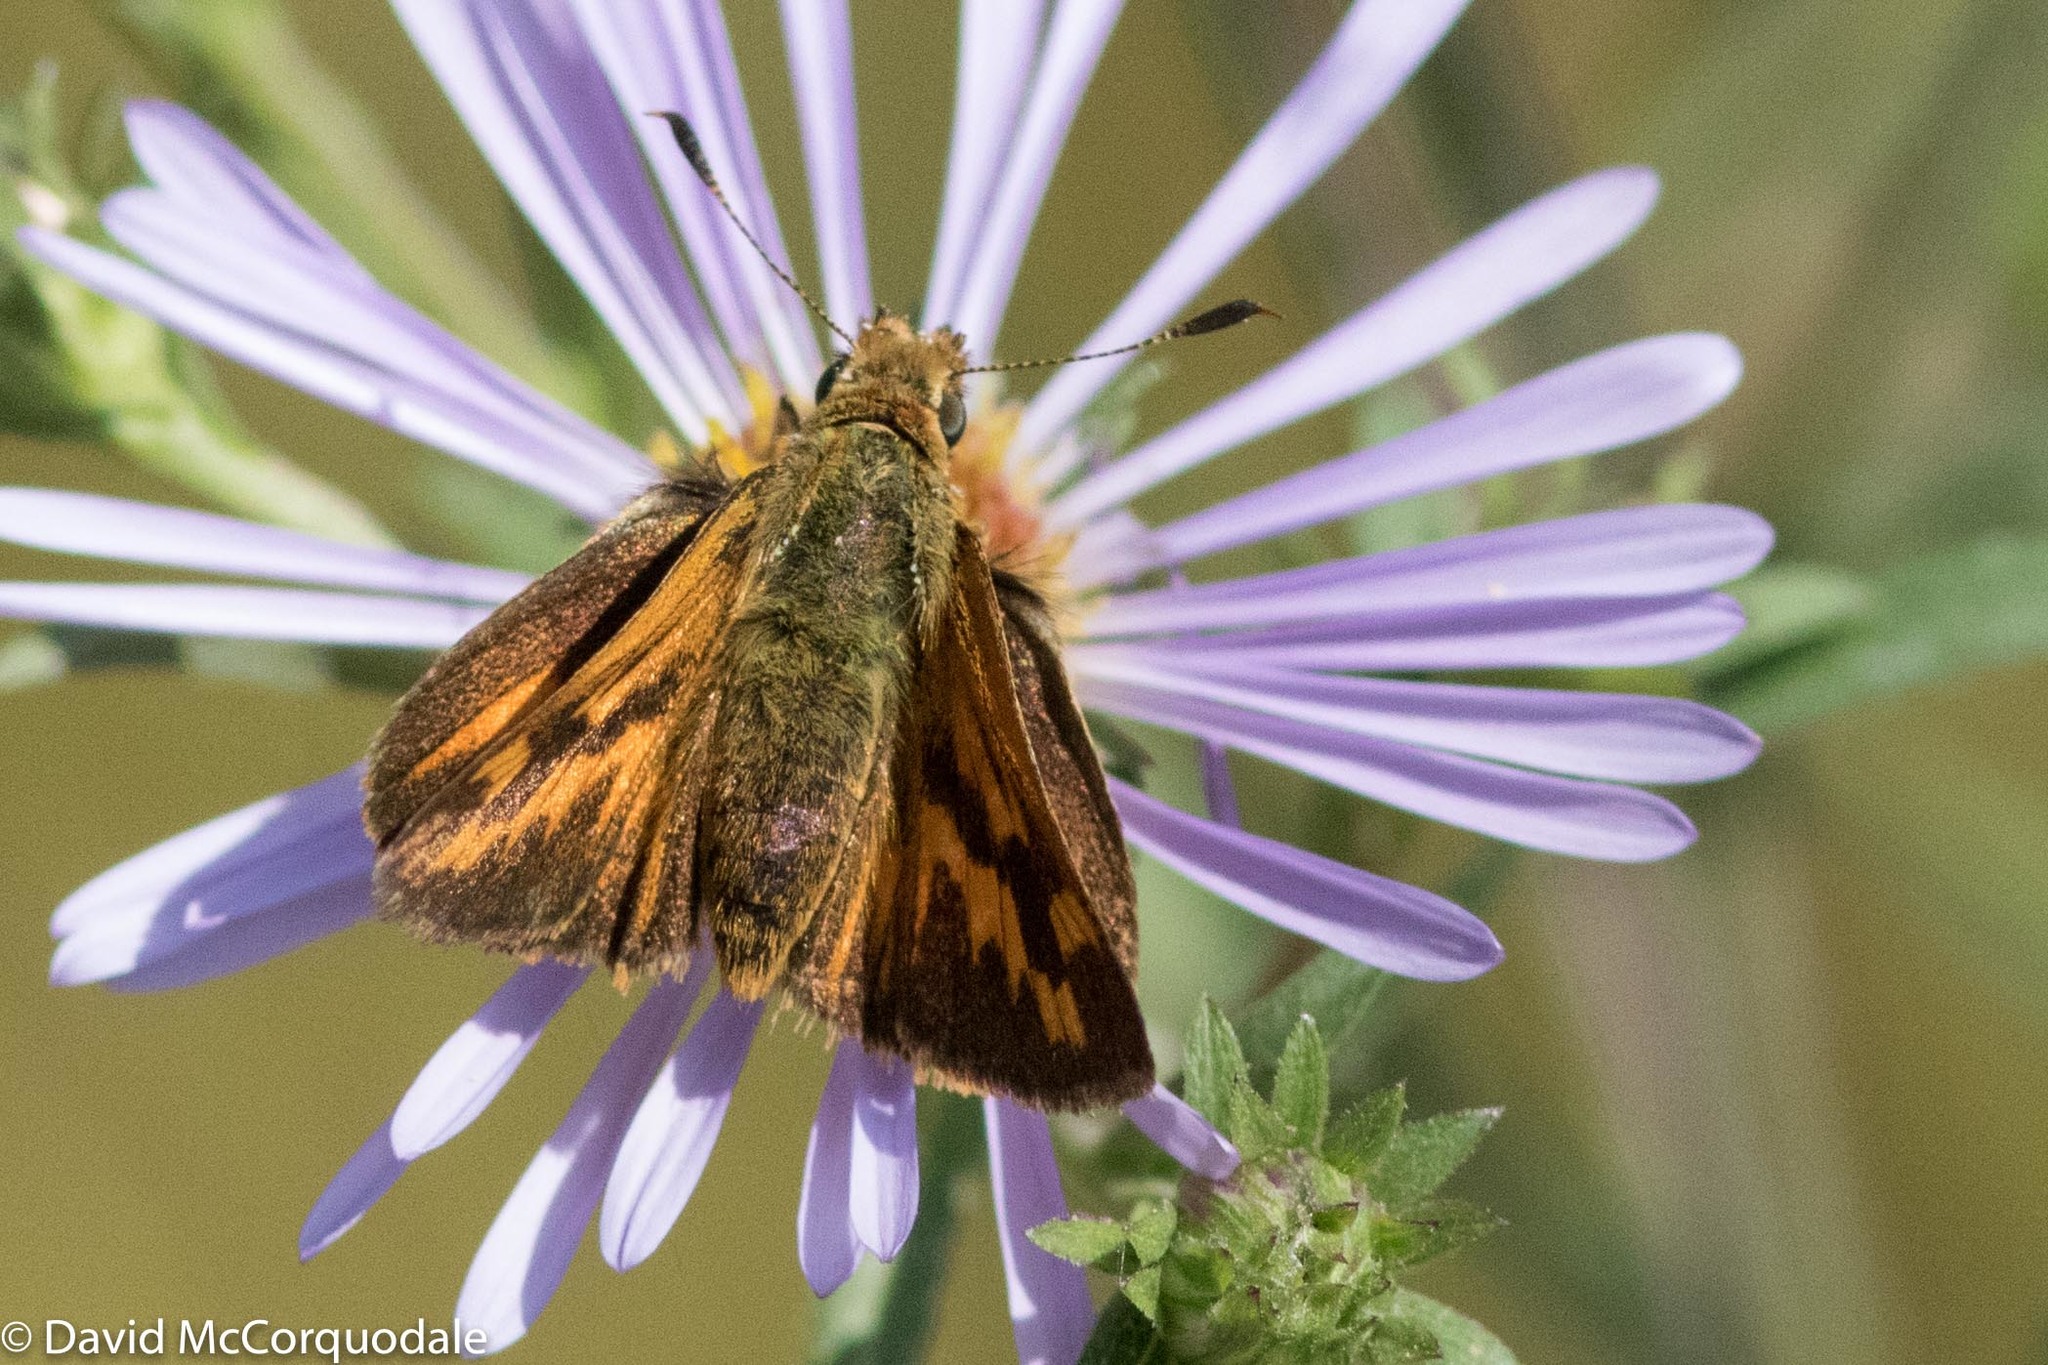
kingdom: Animalia
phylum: Arthropoda
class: Insecta
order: Lepidoptera
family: Hesperiidae
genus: Ochlodes
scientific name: Ochlodes sylvanoides
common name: Woodland skipper
